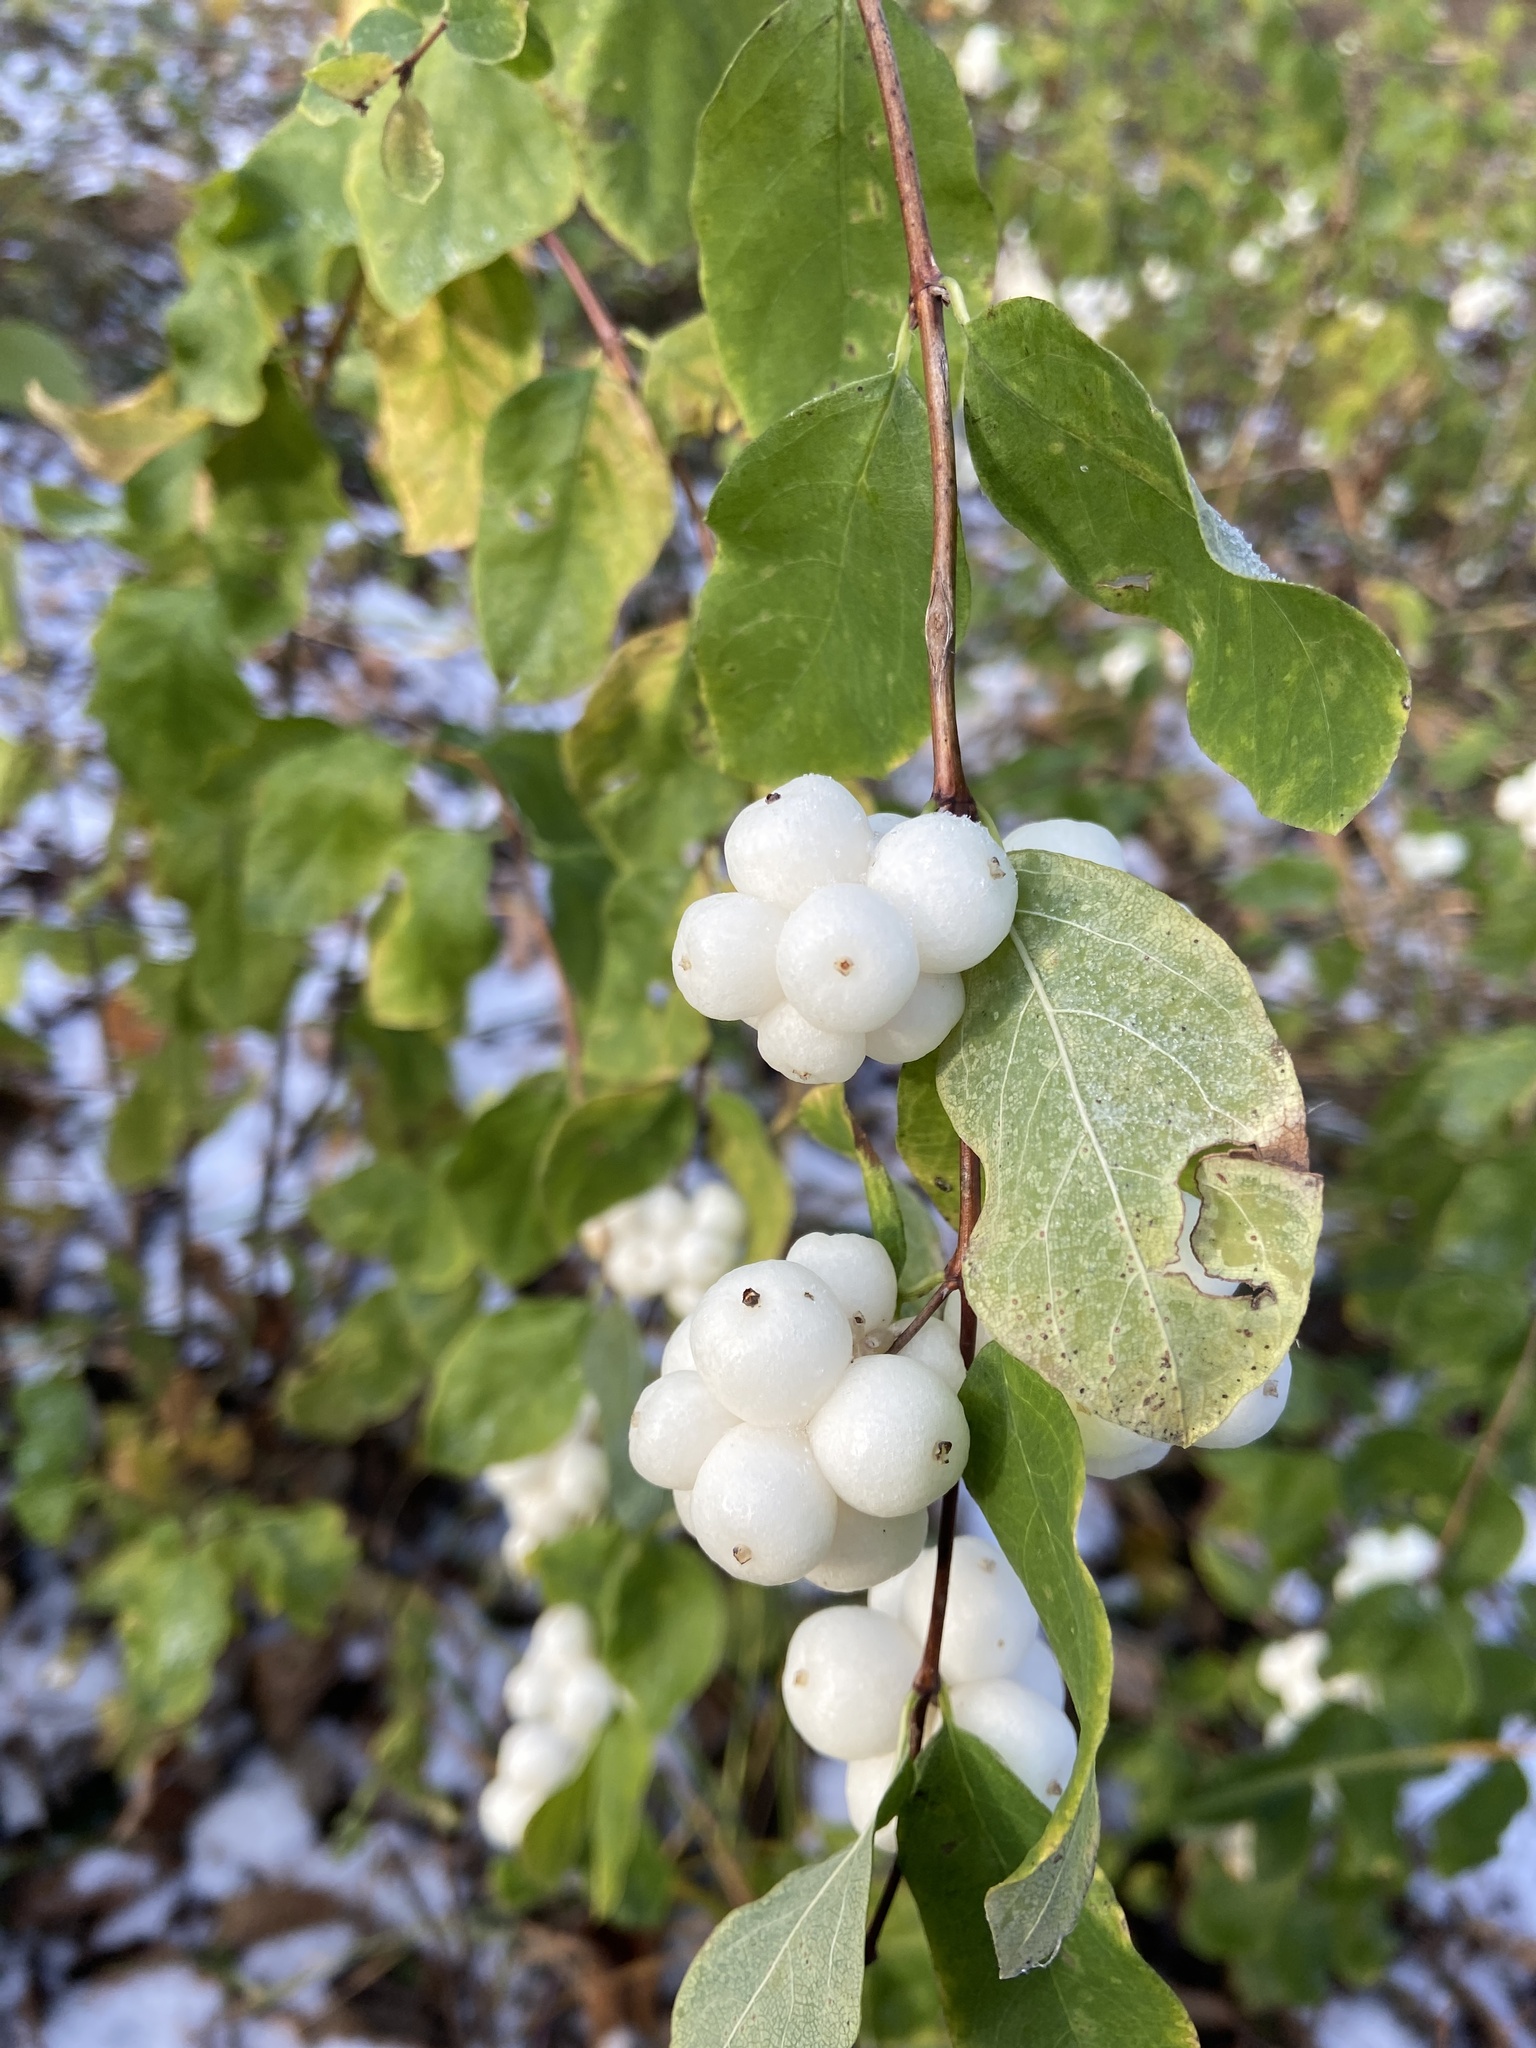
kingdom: Plantae
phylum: Tracheophyta
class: Magnoliopsida
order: Dipsacales
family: Caprifoliaceae
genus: Symphoricarpos
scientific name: Symphoricarpos albus
